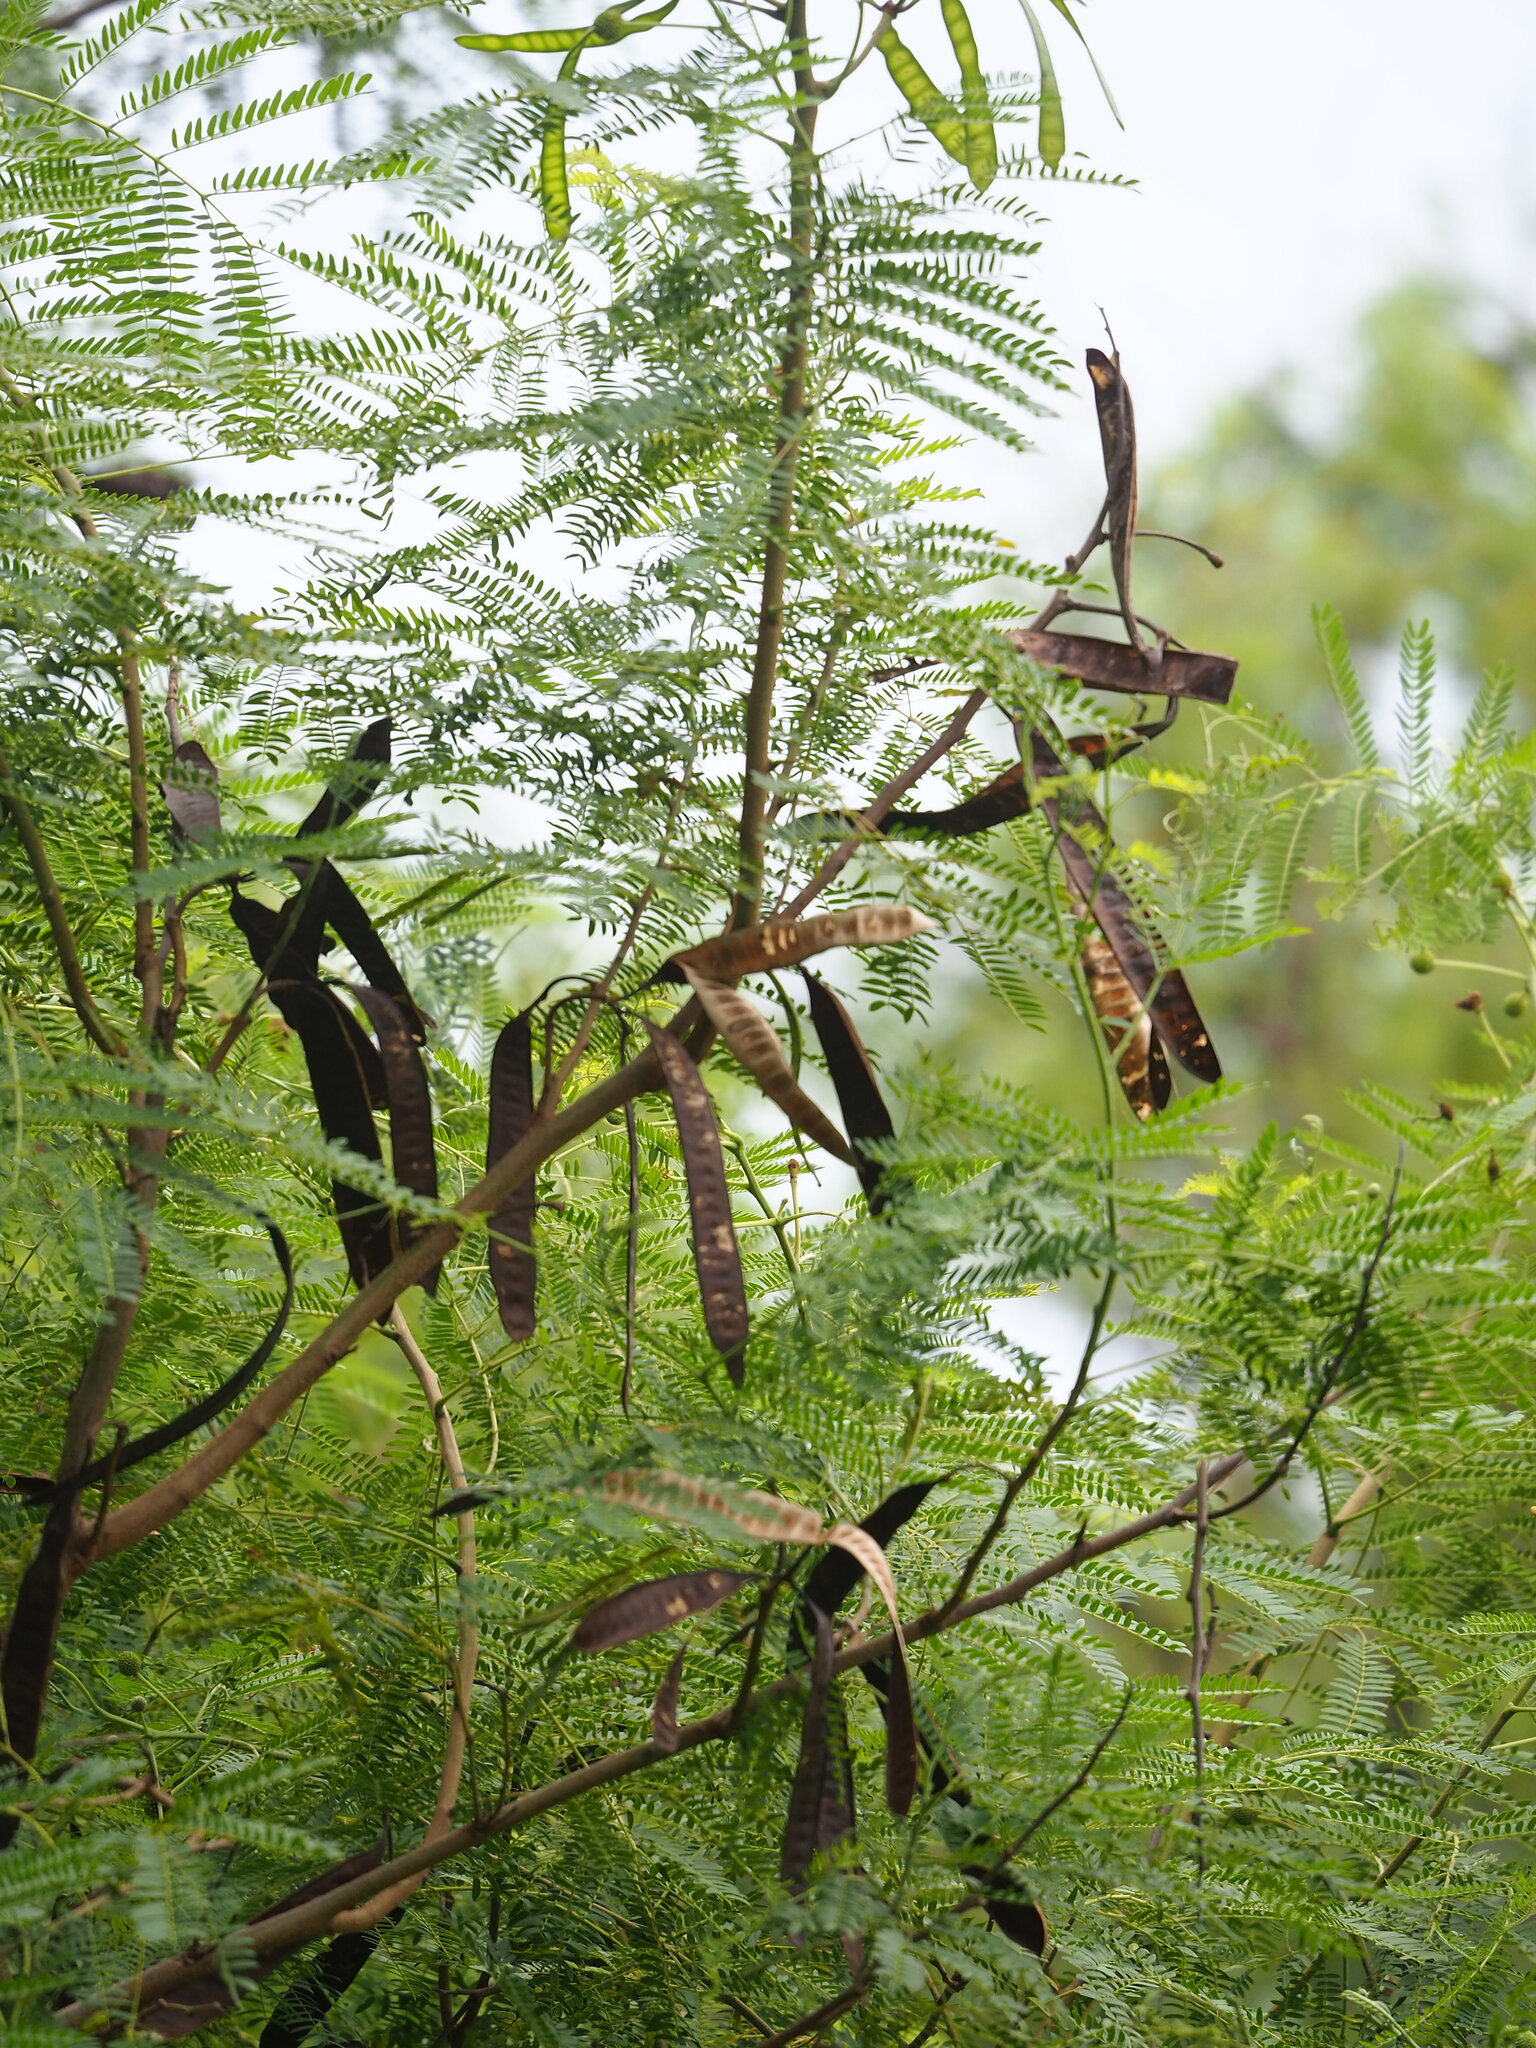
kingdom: Plantae
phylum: Tracheophyta
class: Magnoliopsida
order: Fabales
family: Fabaceae
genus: Leucaena
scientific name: Leucaena leucocephala
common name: White leadtree
